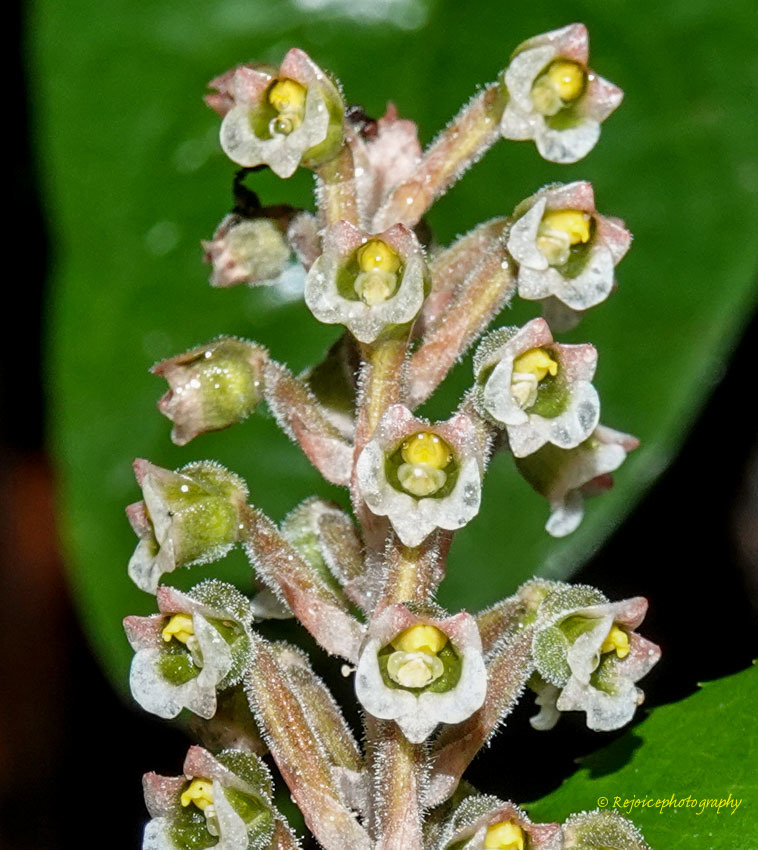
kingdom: Plantae
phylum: Tracheophyta
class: Liliopsida
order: Asparagales
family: Orchidaceae
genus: Hetaeria
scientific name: Hetaeria oblongifolia
